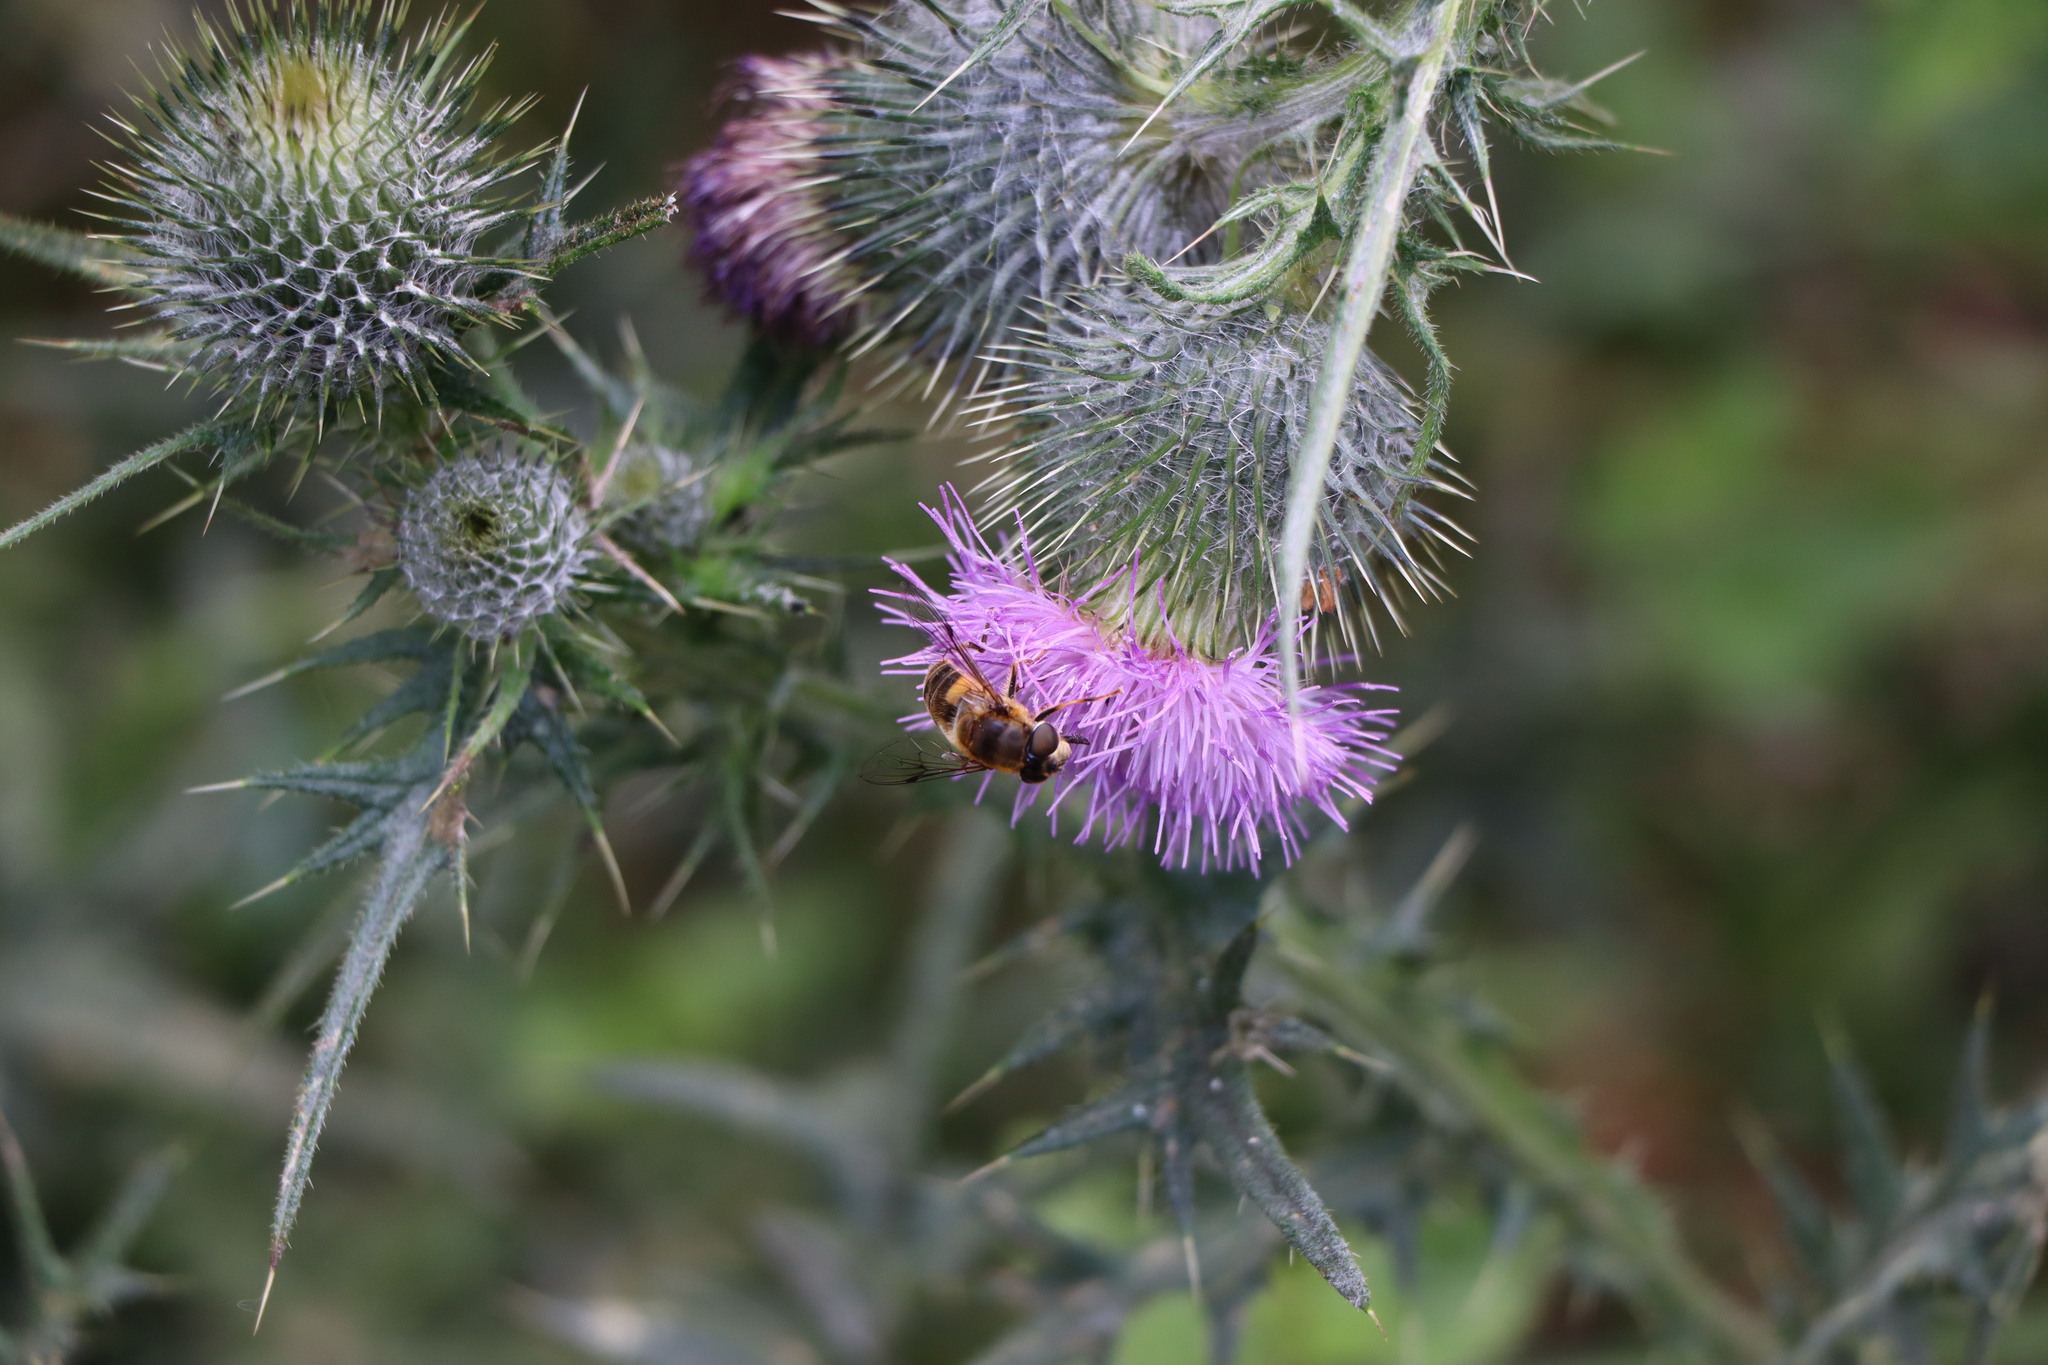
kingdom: Animalia
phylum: Arthropoda
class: Insecta
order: Diptera
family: Syrphidae
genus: Eristalis
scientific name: Eristalis pertinax
